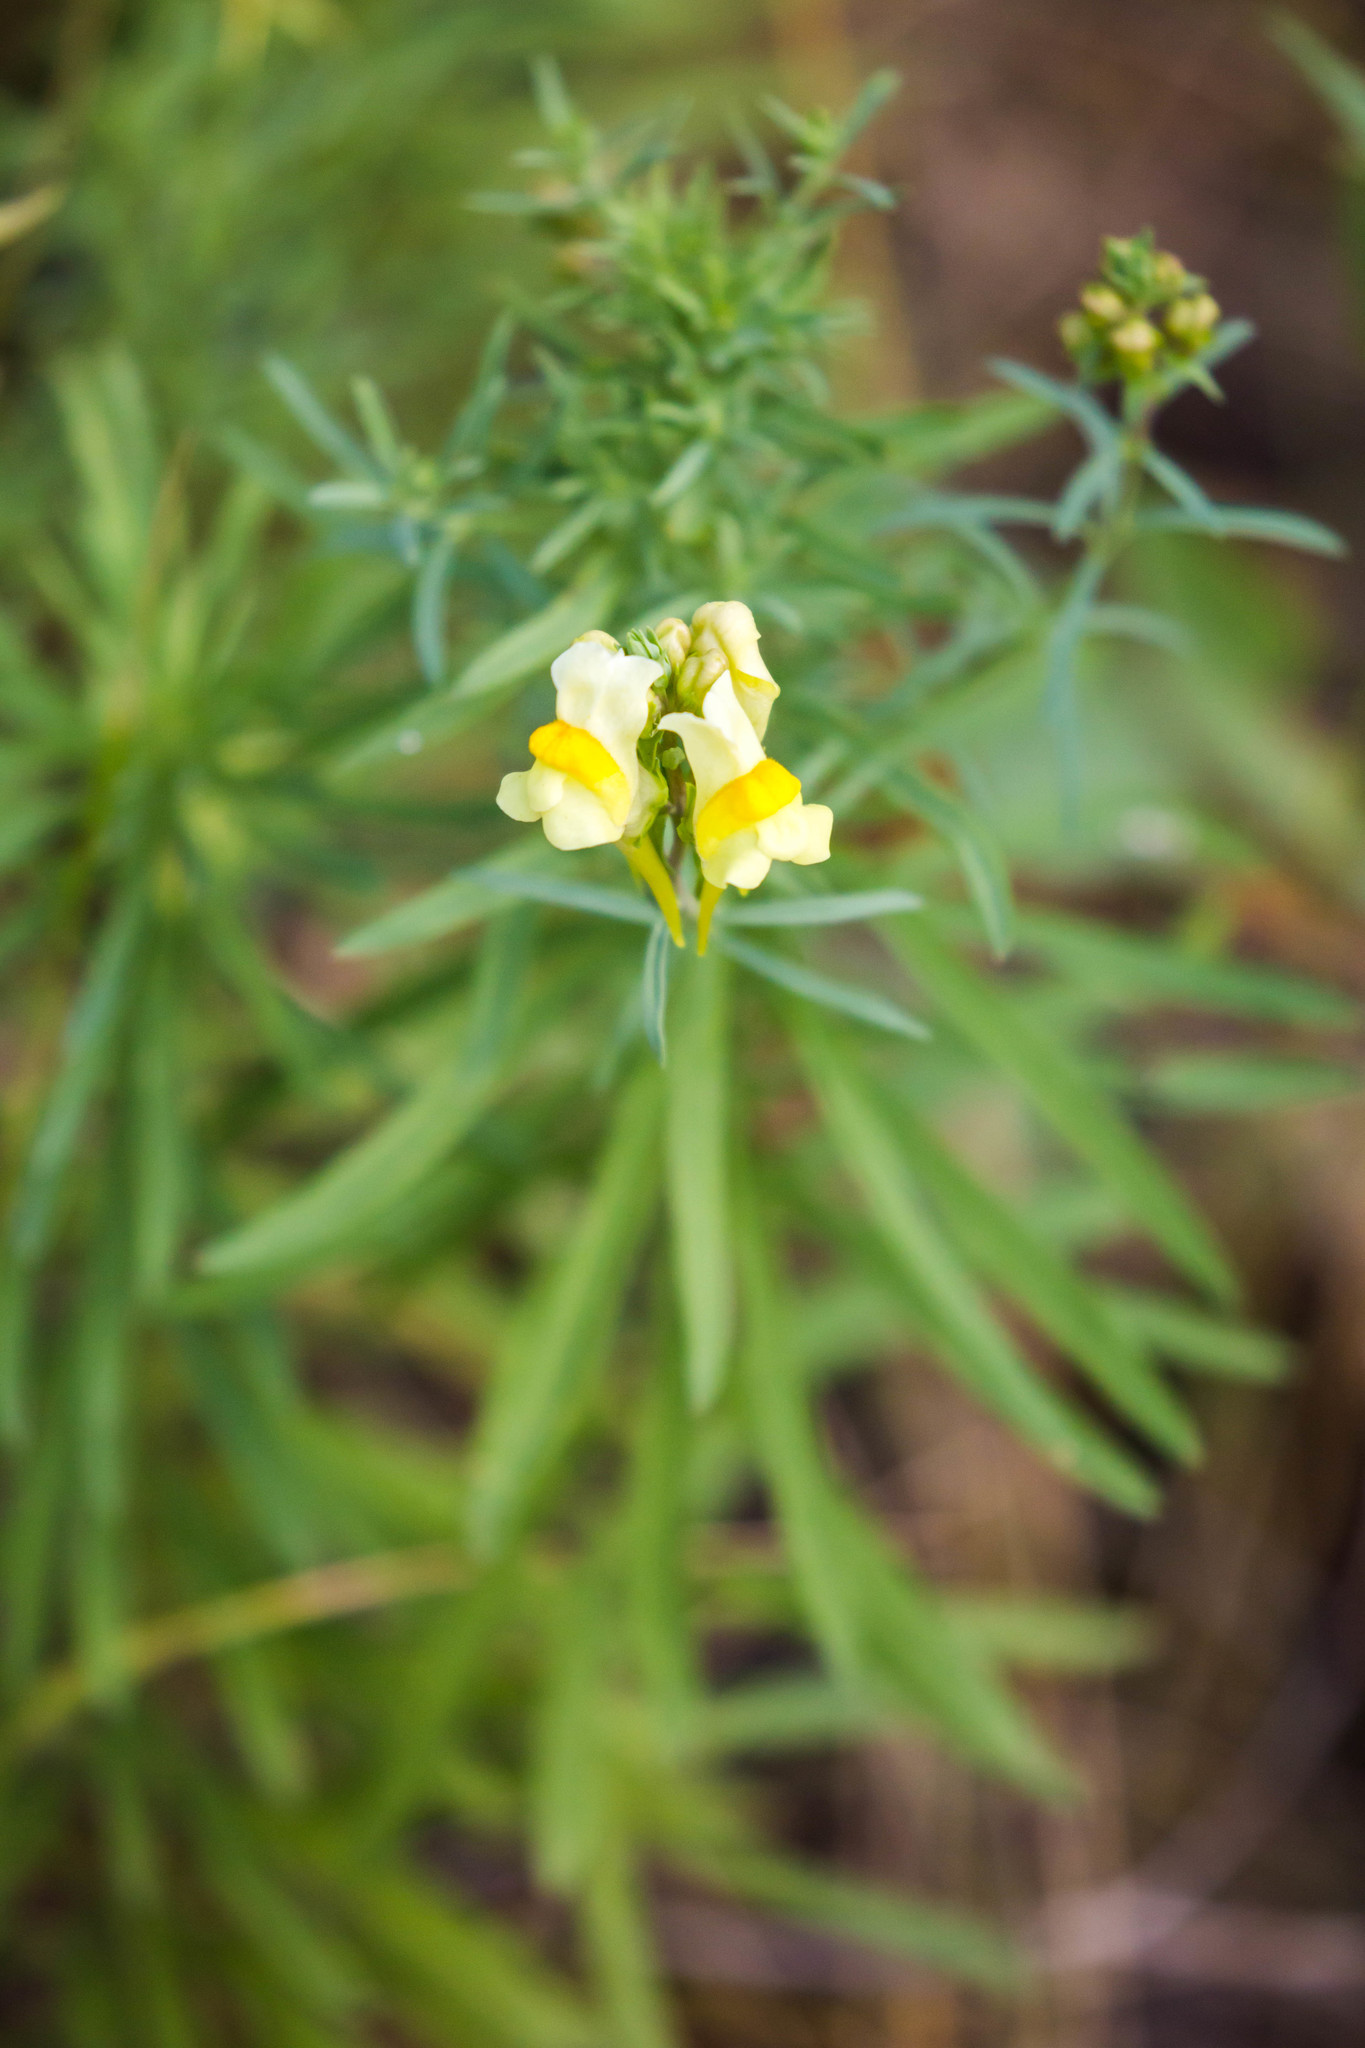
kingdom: Plantae
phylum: Tracheophyta
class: Magnoliopsida
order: Lamiales
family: Plantaginaceae
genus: Linaria
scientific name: Linaria vulgaris
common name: Butter and eggs
